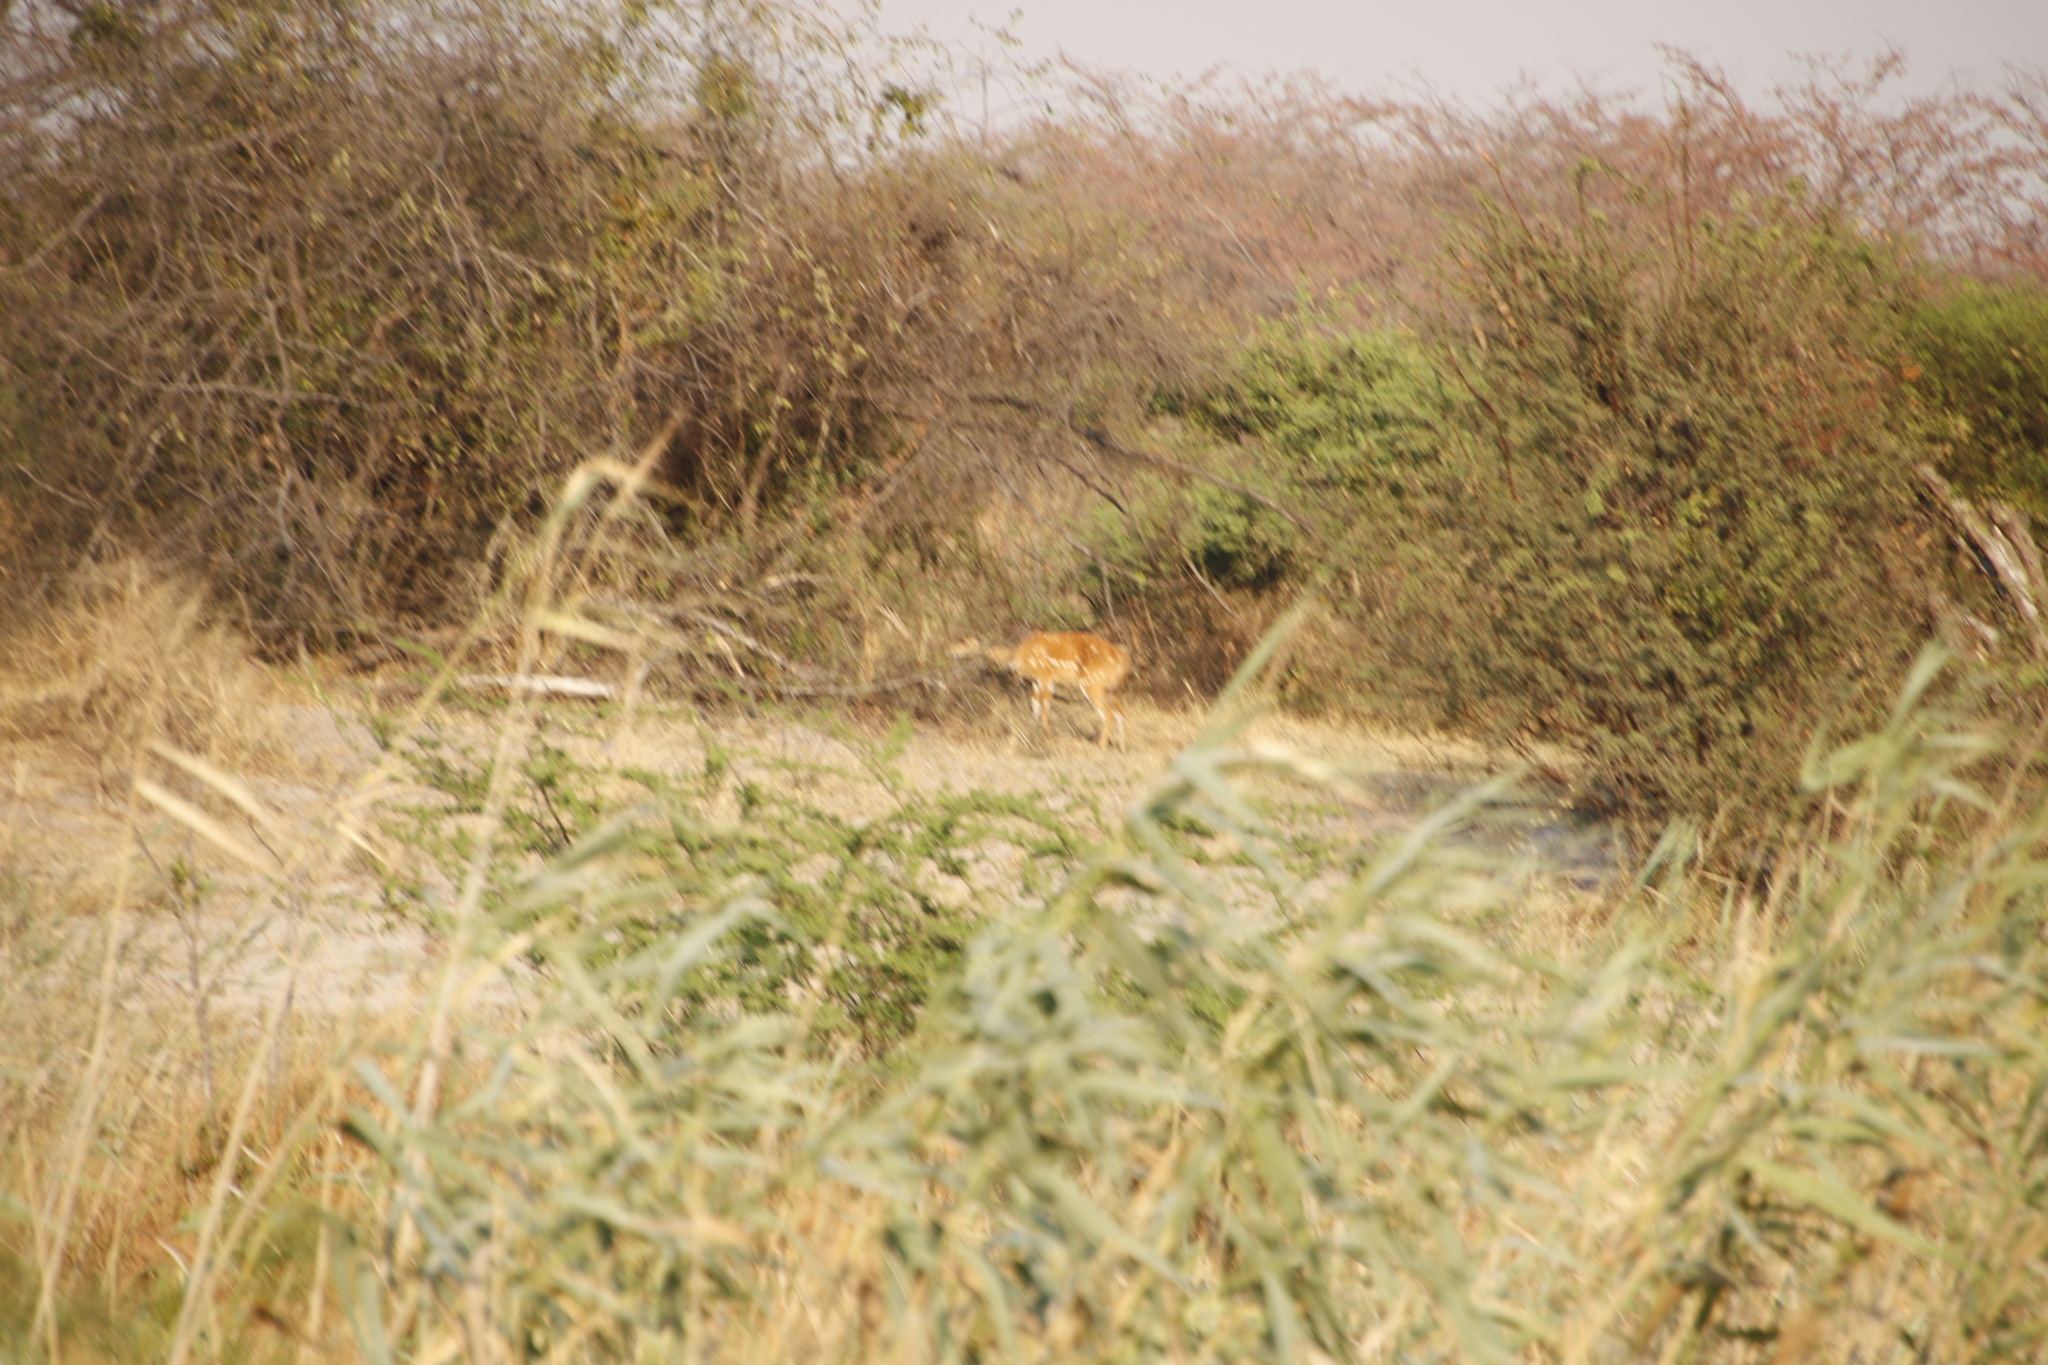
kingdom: Animalia
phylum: Chordata
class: Mammalia
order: Artiodactyla
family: Bovidae
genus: Tragelaphus
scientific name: Tragelaphus scriptus
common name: Bushbuck
